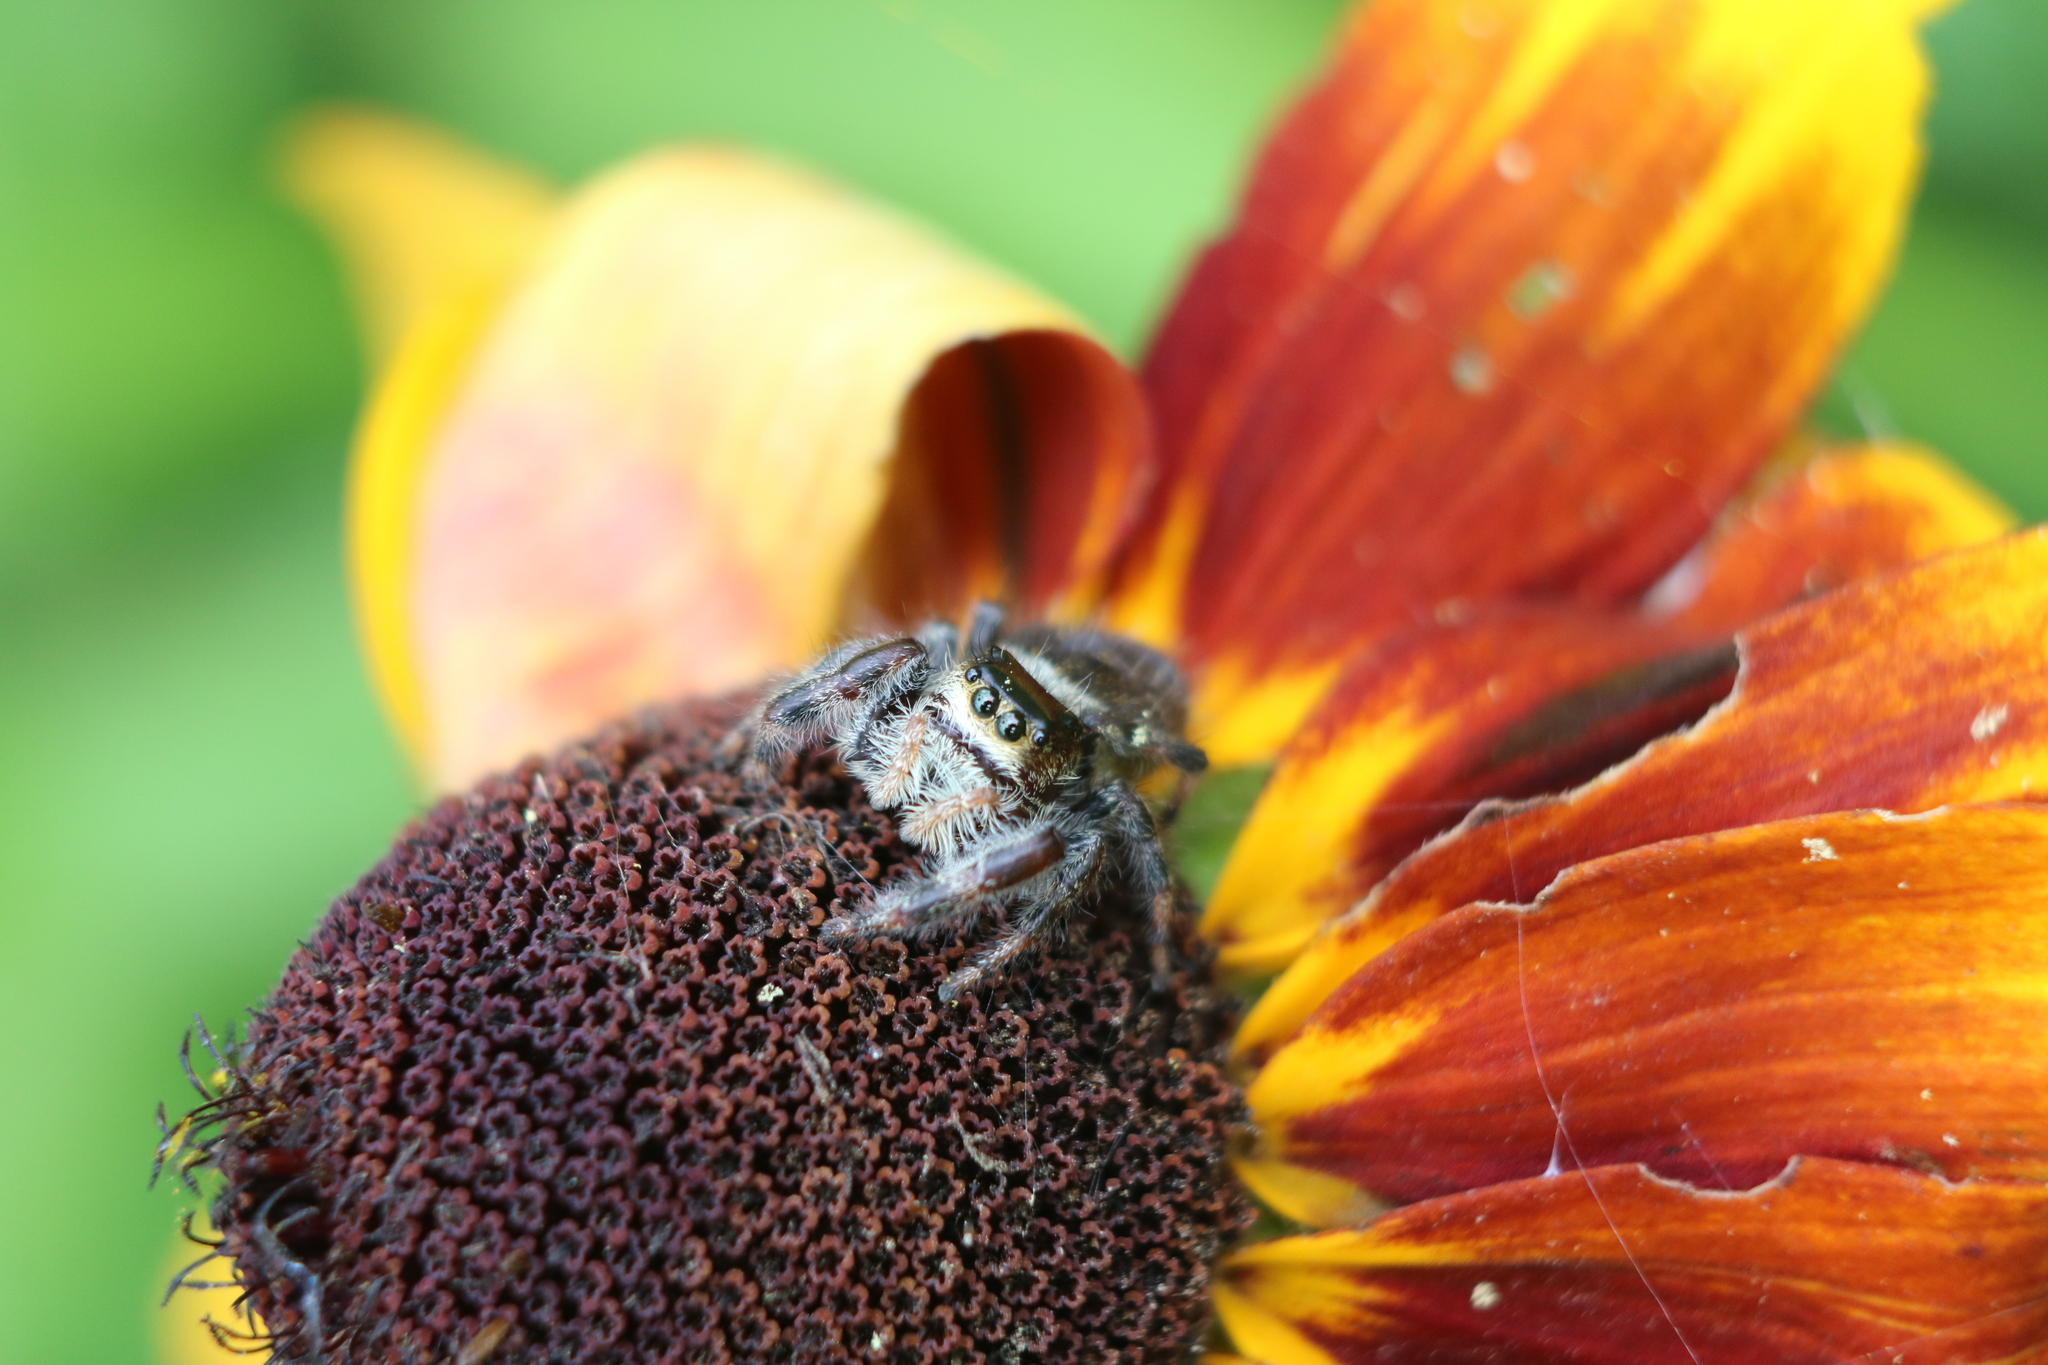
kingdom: Animalia
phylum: Arthropoda
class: Arachnida
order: Araneae
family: Salticidae
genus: Phidippus
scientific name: Phidippus clarus
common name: Brilliant jumping spider
